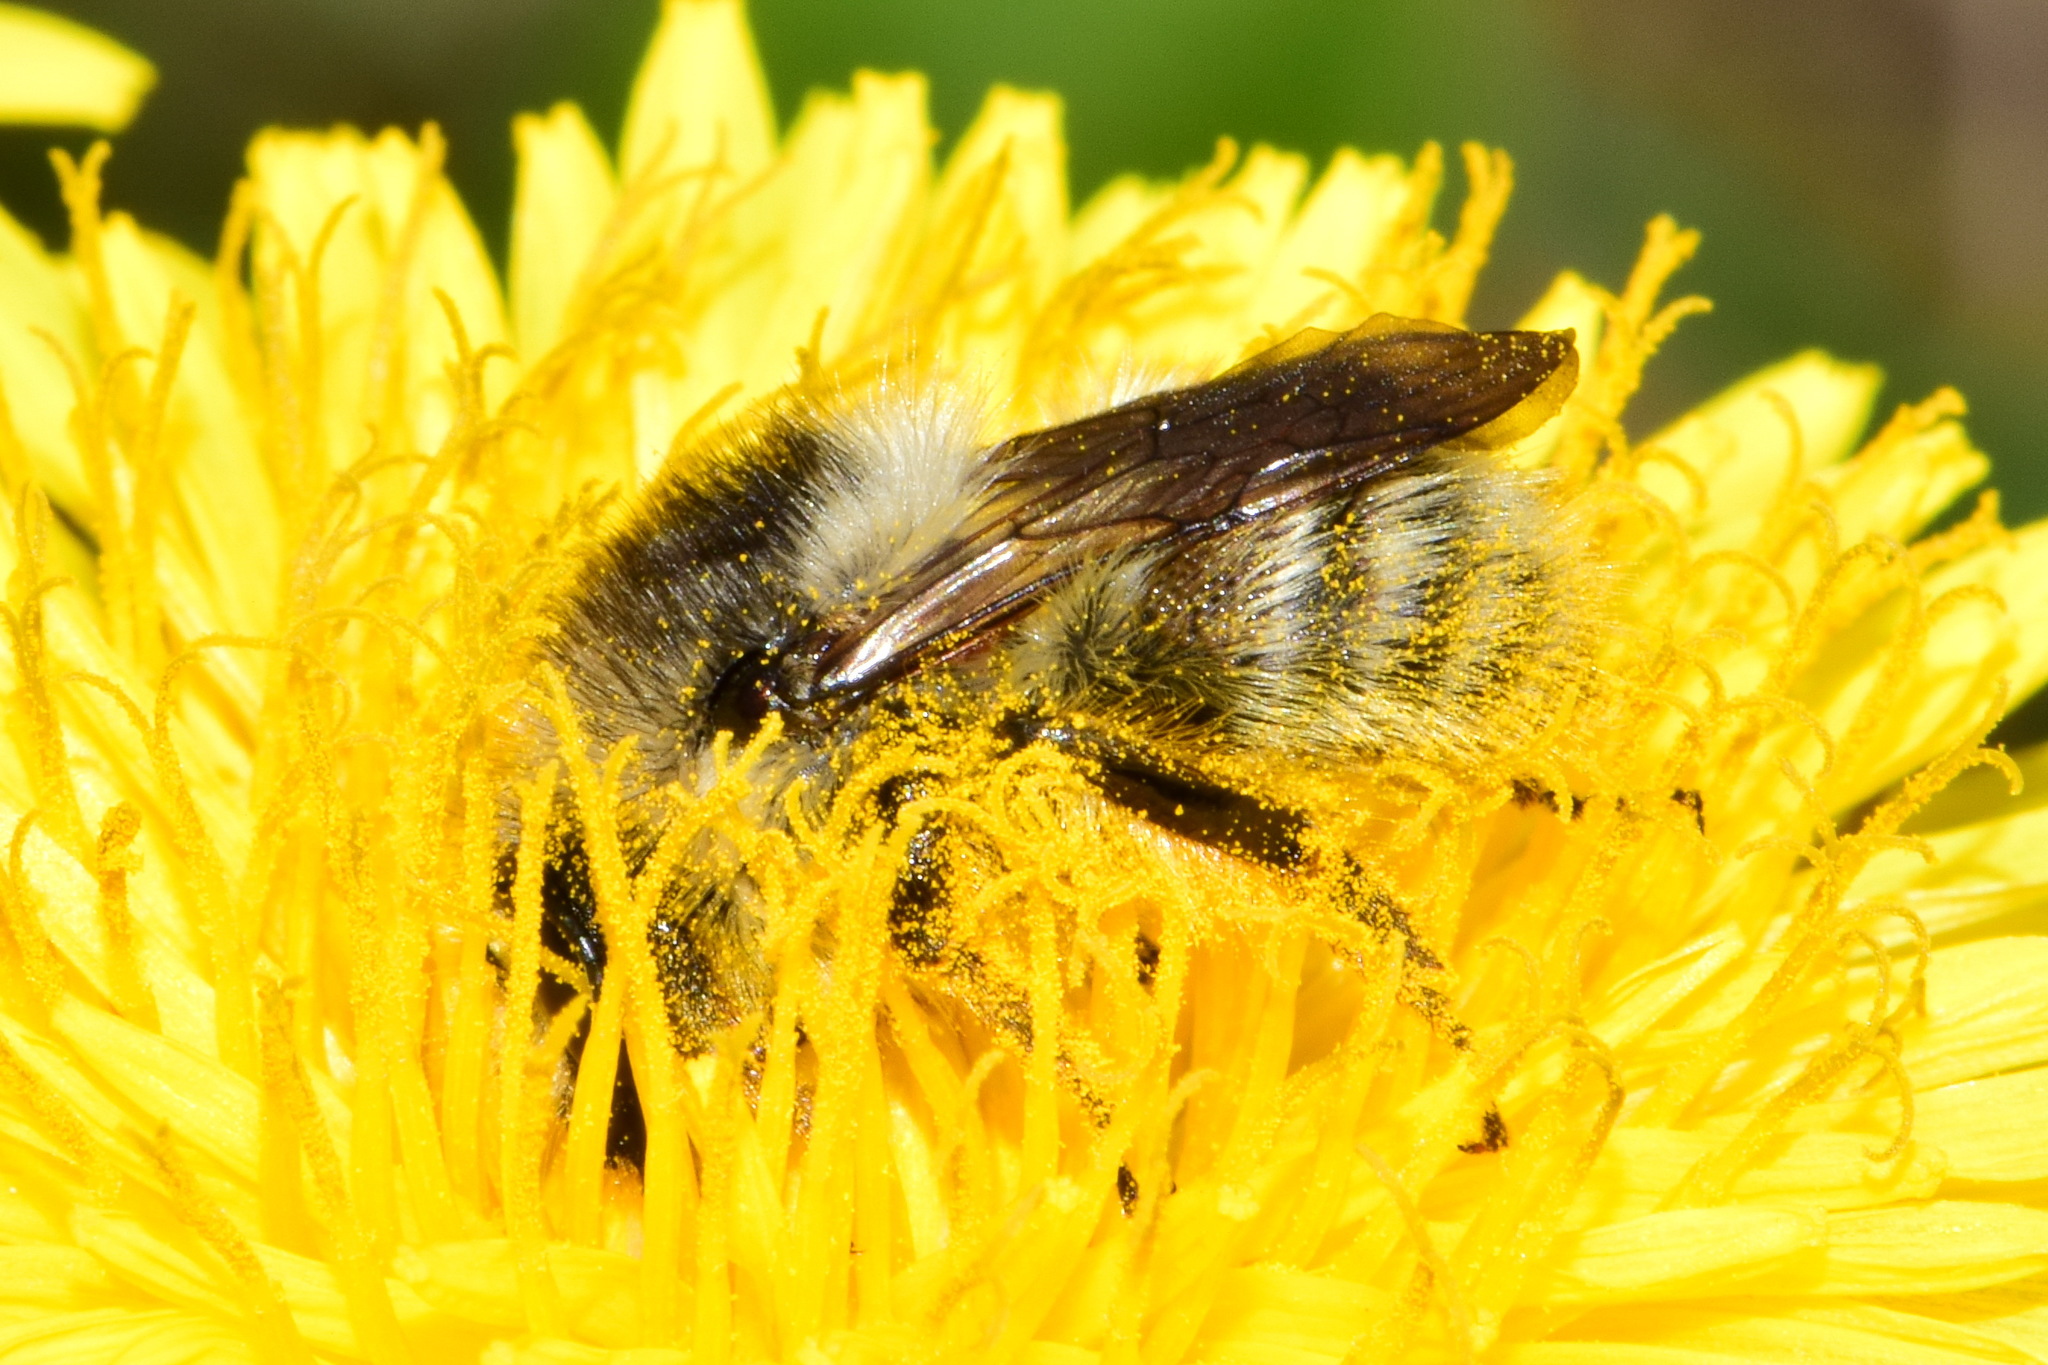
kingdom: Animalia
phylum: Arthropoda
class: Insecta
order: Hymenoptera
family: Apidae
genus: Bombus
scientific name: Bombus deuteronymus
